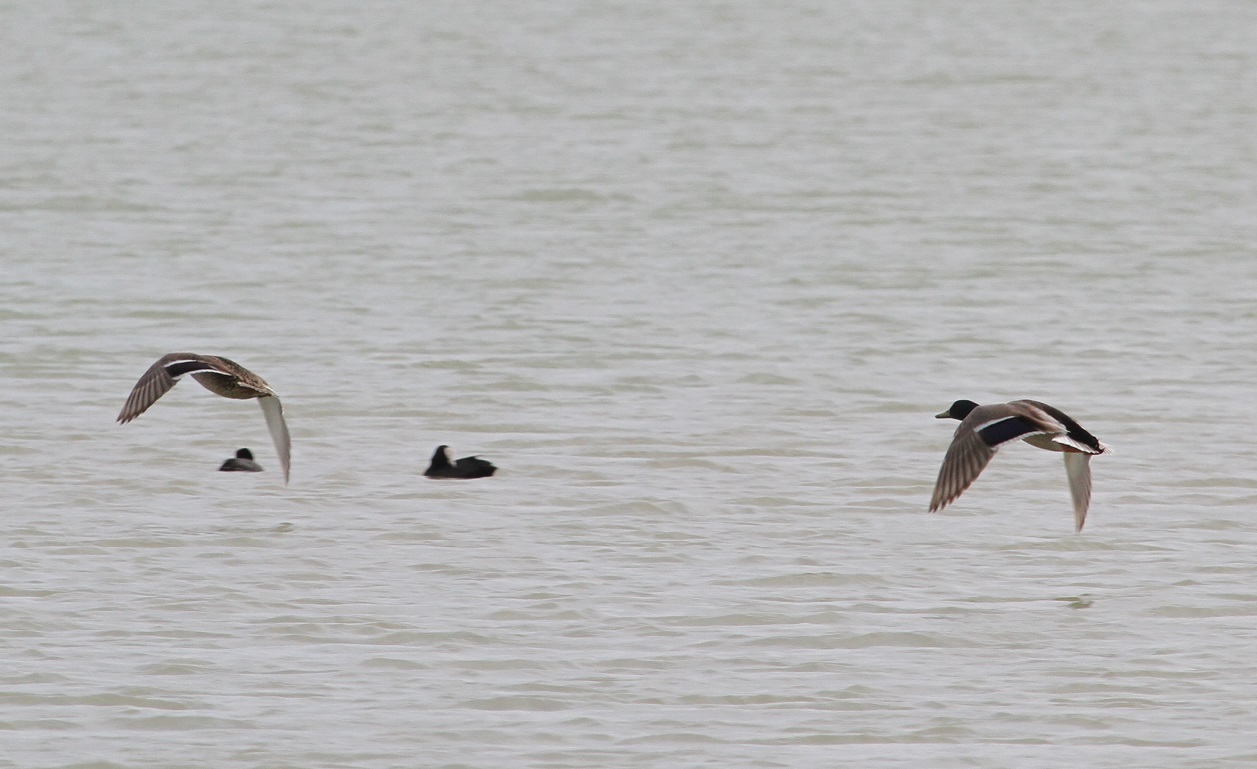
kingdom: Animalia
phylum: Chordata
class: Aves
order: Anseriformes
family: Anatidae
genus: Anas
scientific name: Anas platyrhynchos
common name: Mallard
